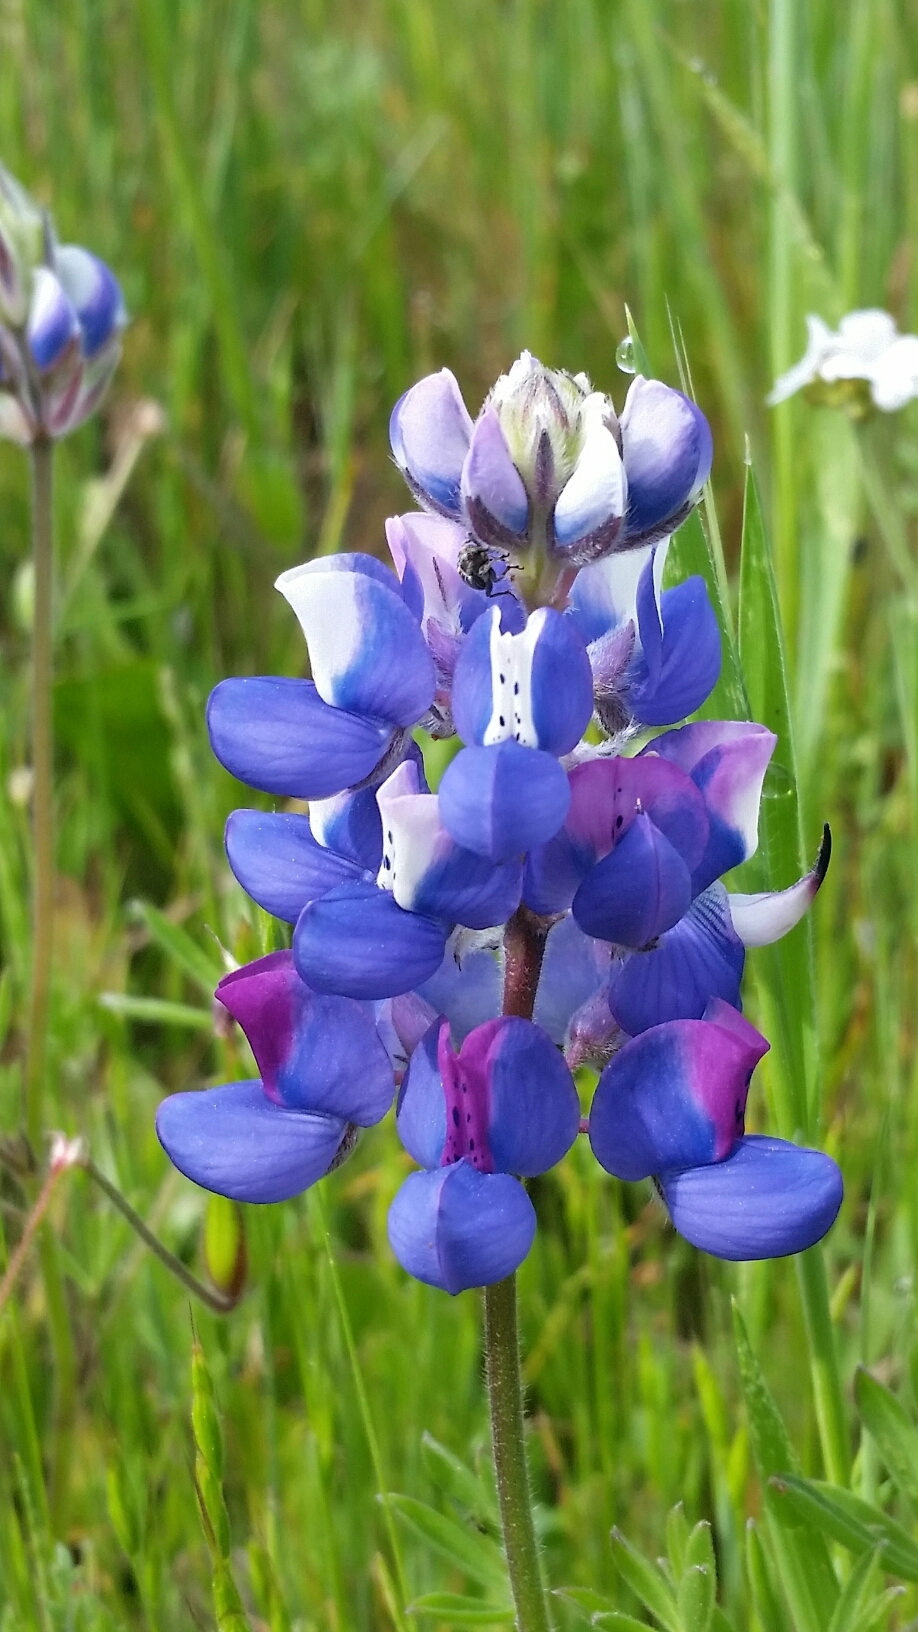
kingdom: Plantae
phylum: Tracheophyta
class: Magnoliopsida
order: Fabales
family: Fabaceae
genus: Lupinus
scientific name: Lupinus nanus
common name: Orean blue lupin
